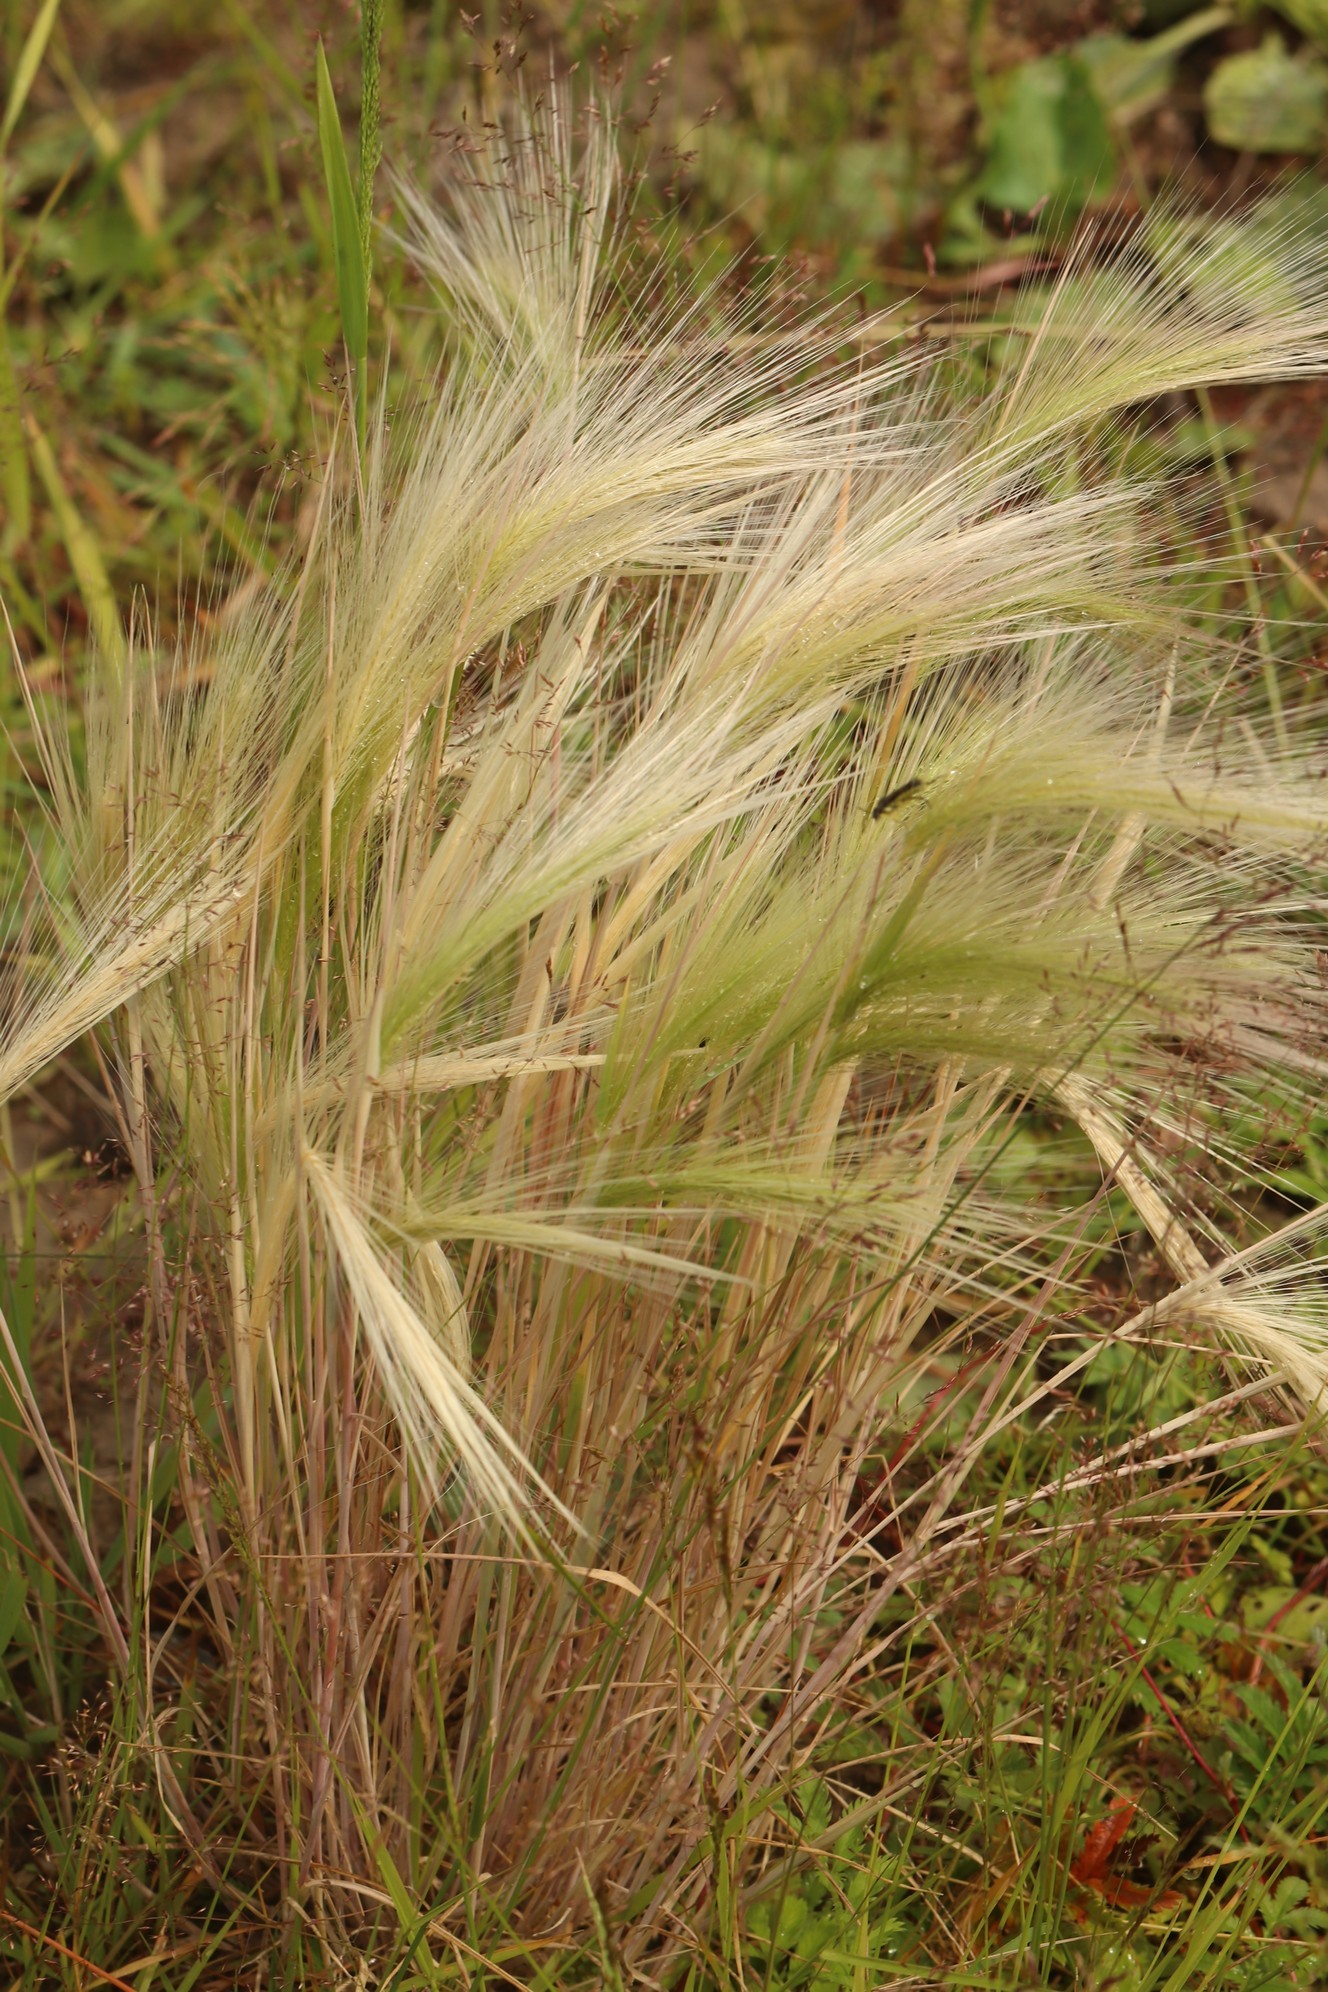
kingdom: Plantae
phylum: Tracheophyta
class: Liliopsida
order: Poales
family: Poaceae
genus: Hordeum
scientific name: Hordeum jubatum
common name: Foxtail barley
